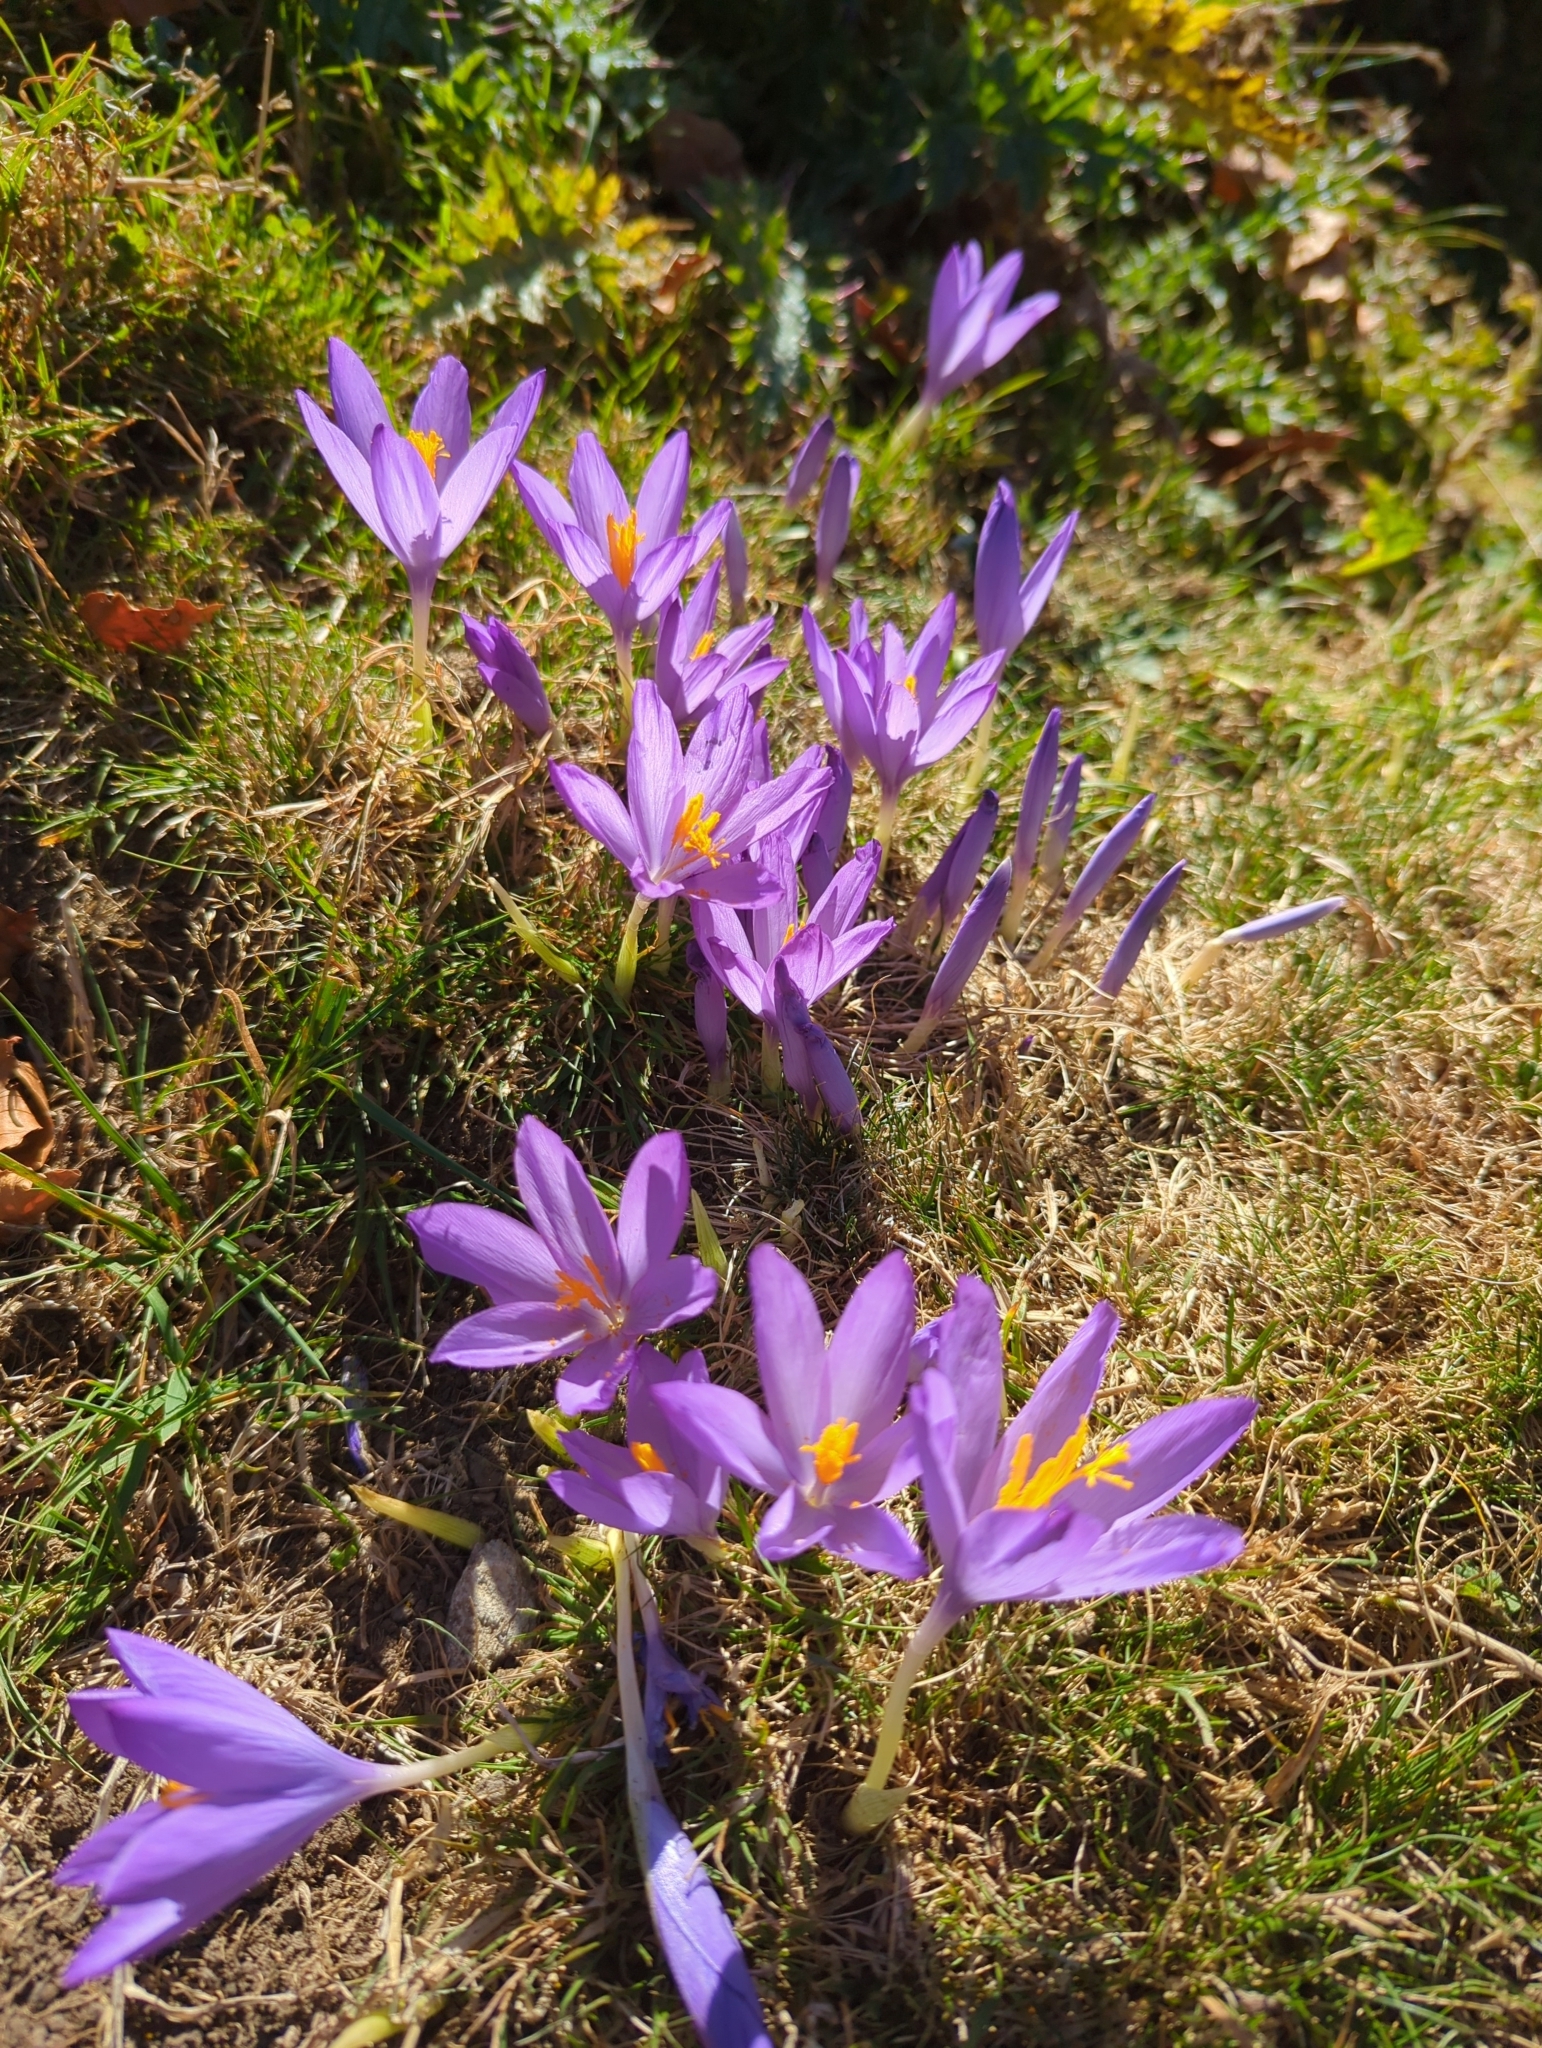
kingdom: Plantae
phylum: Tracheophyta
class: Liliopsida
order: Asparagales
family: Iridaceae
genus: Crocus
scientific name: Crocus nudiflorus
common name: Autumn crocus
